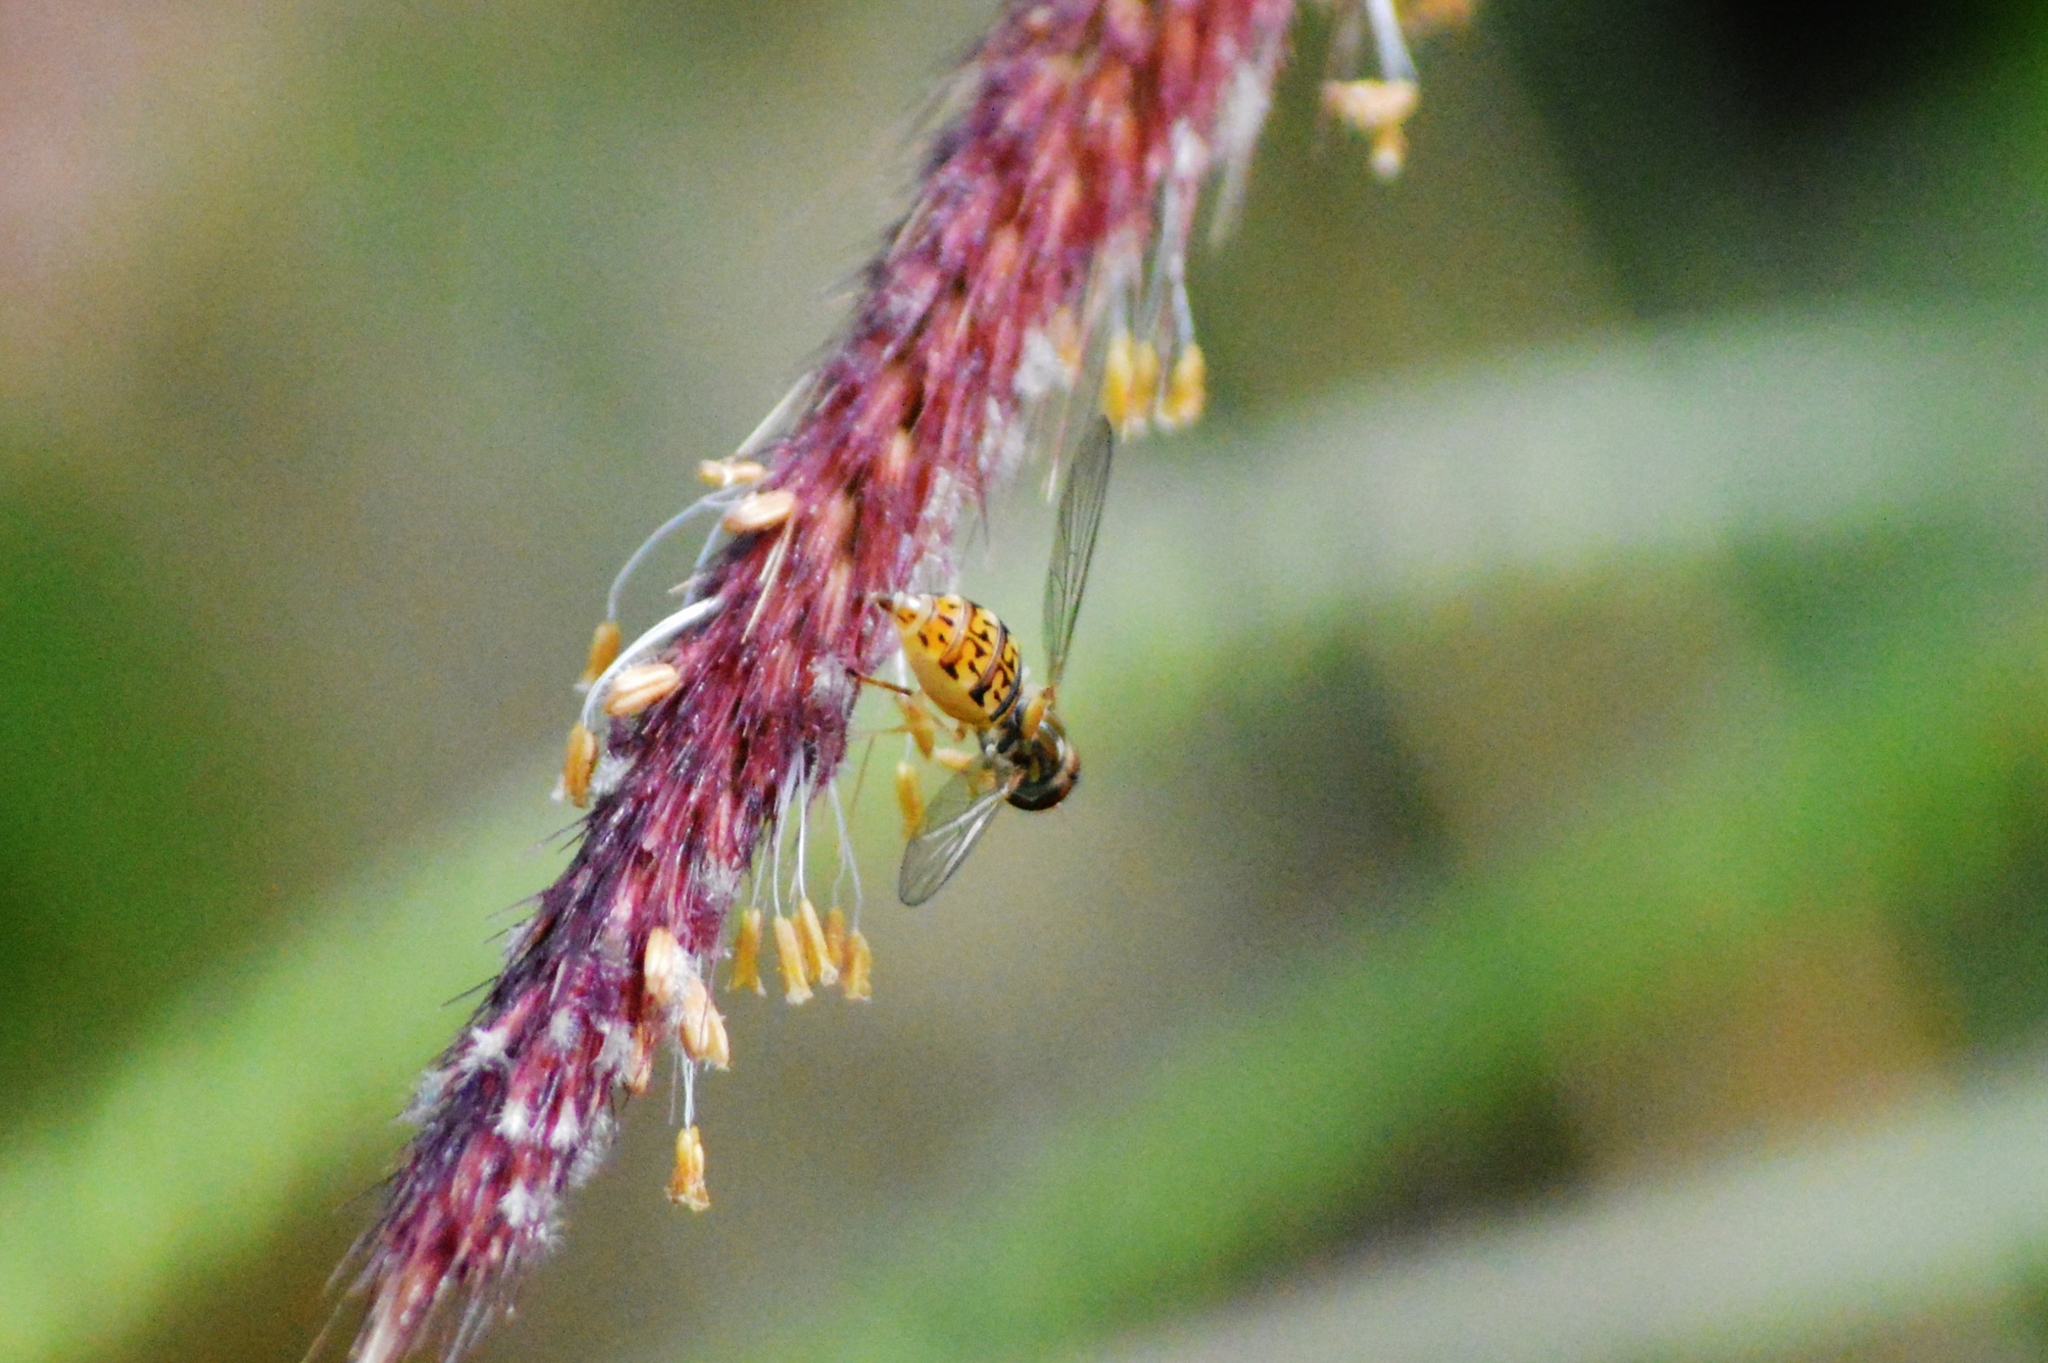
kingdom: Animalia
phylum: Arthropoda
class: Insecta
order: Diptera
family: Syrphidae
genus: Toxomerus
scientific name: Toxomerus
